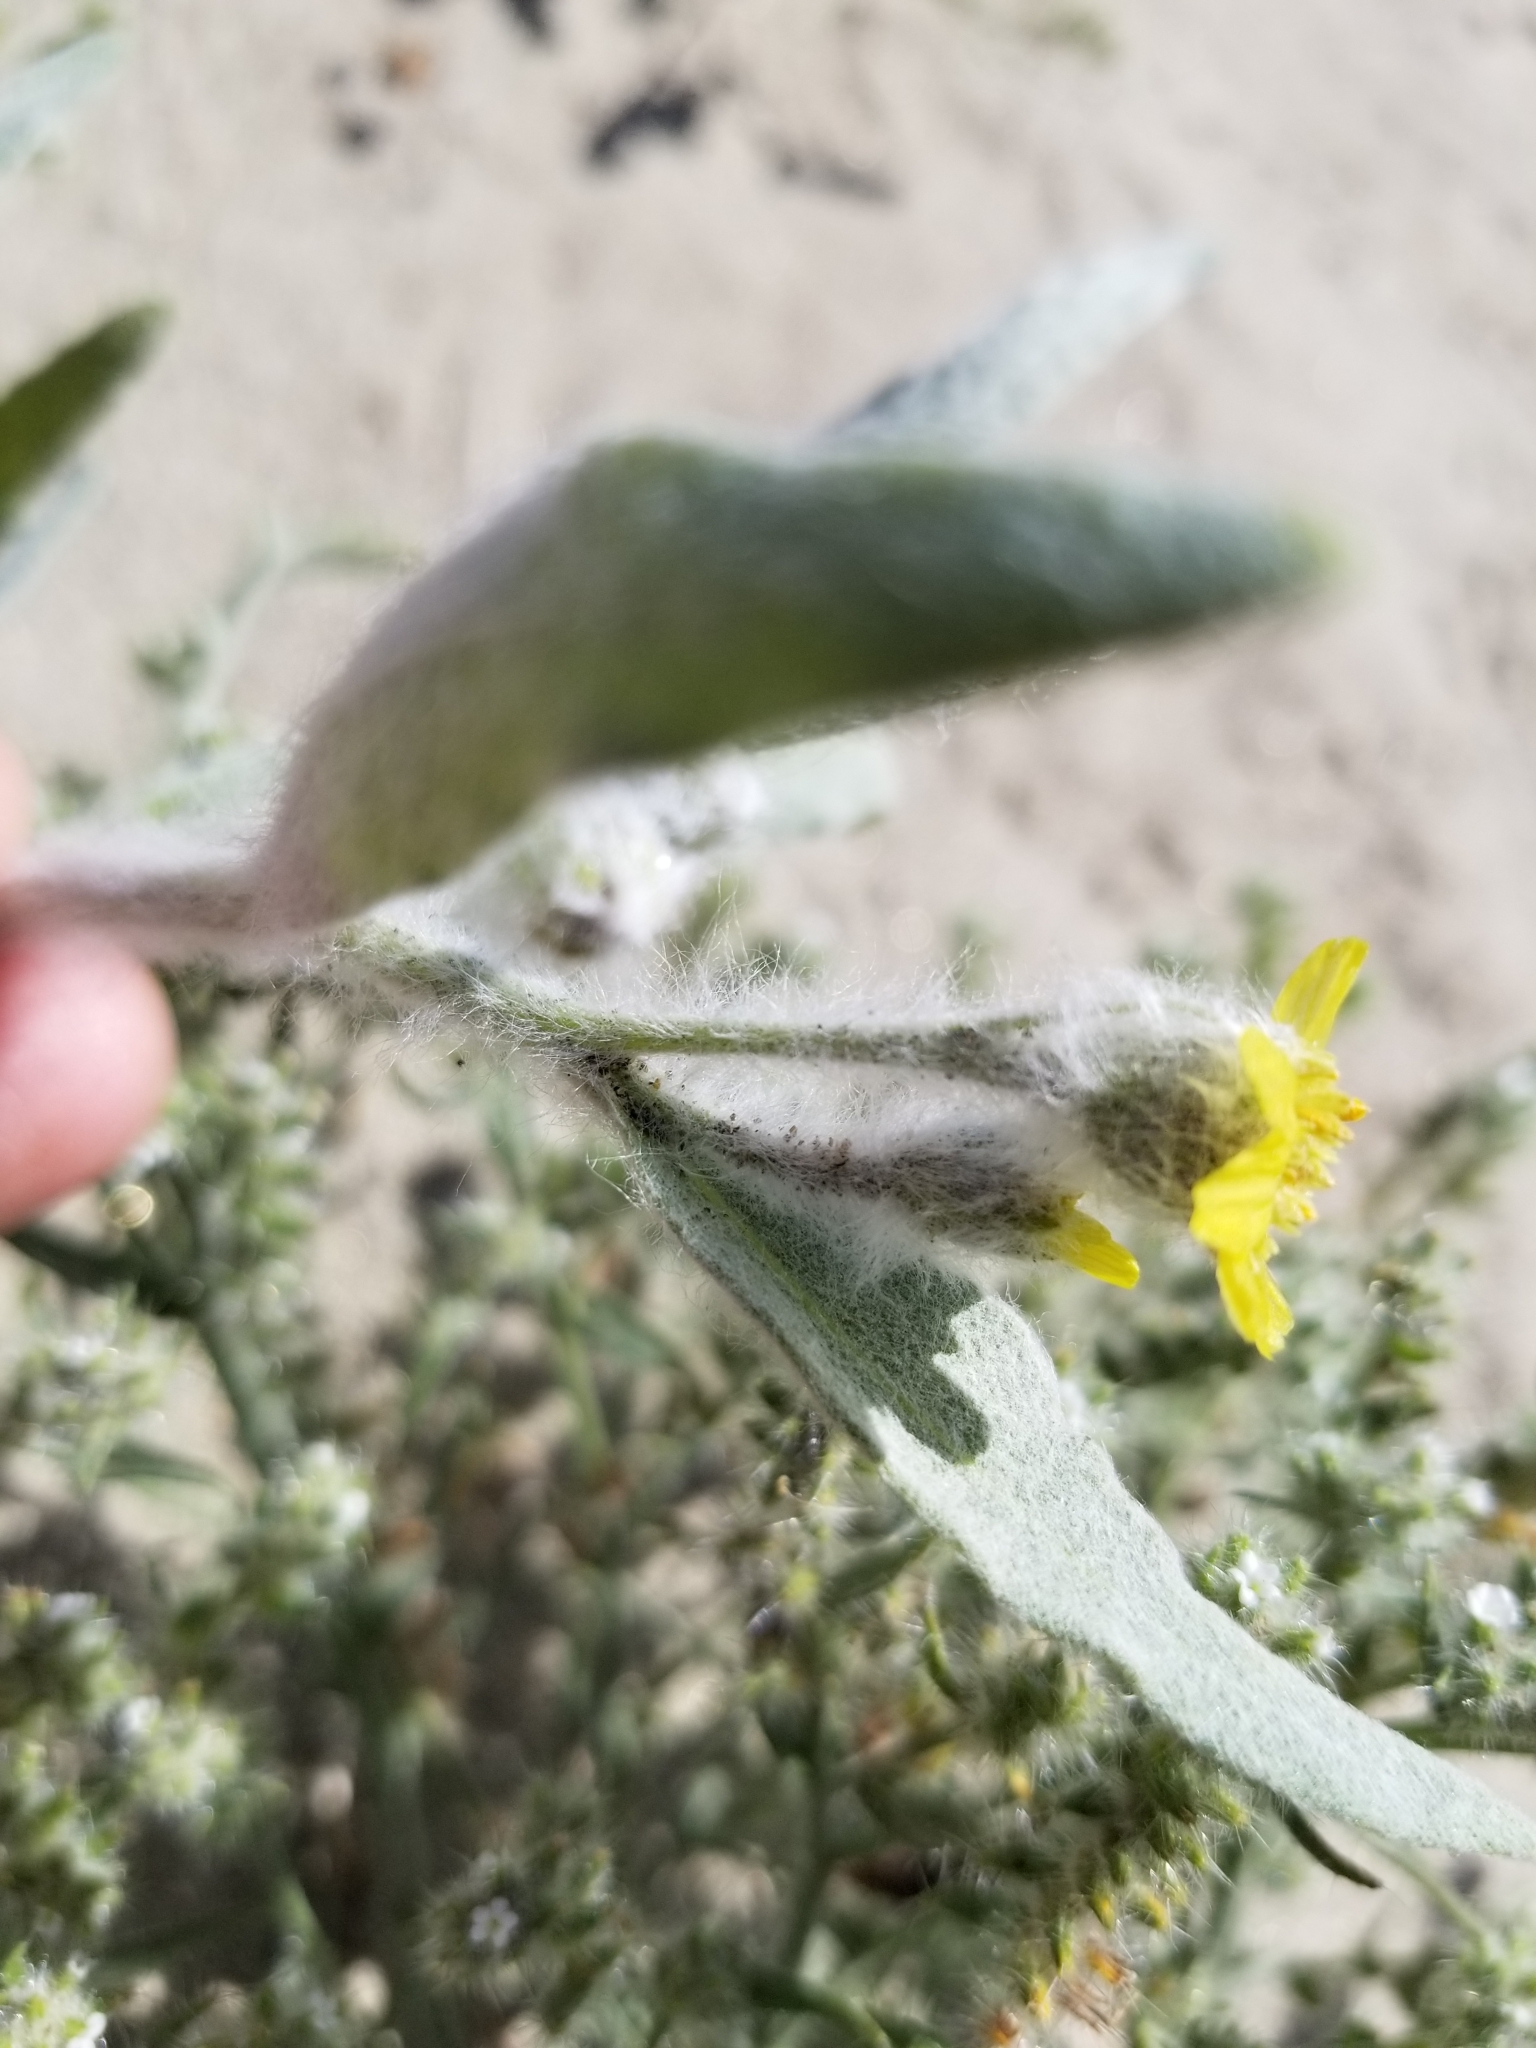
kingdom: Plantae
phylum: Tracheophyta
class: Magnoliopsida
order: Asterales
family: Asteraceae
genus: Baileya
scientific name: Baileya pauciradiata
